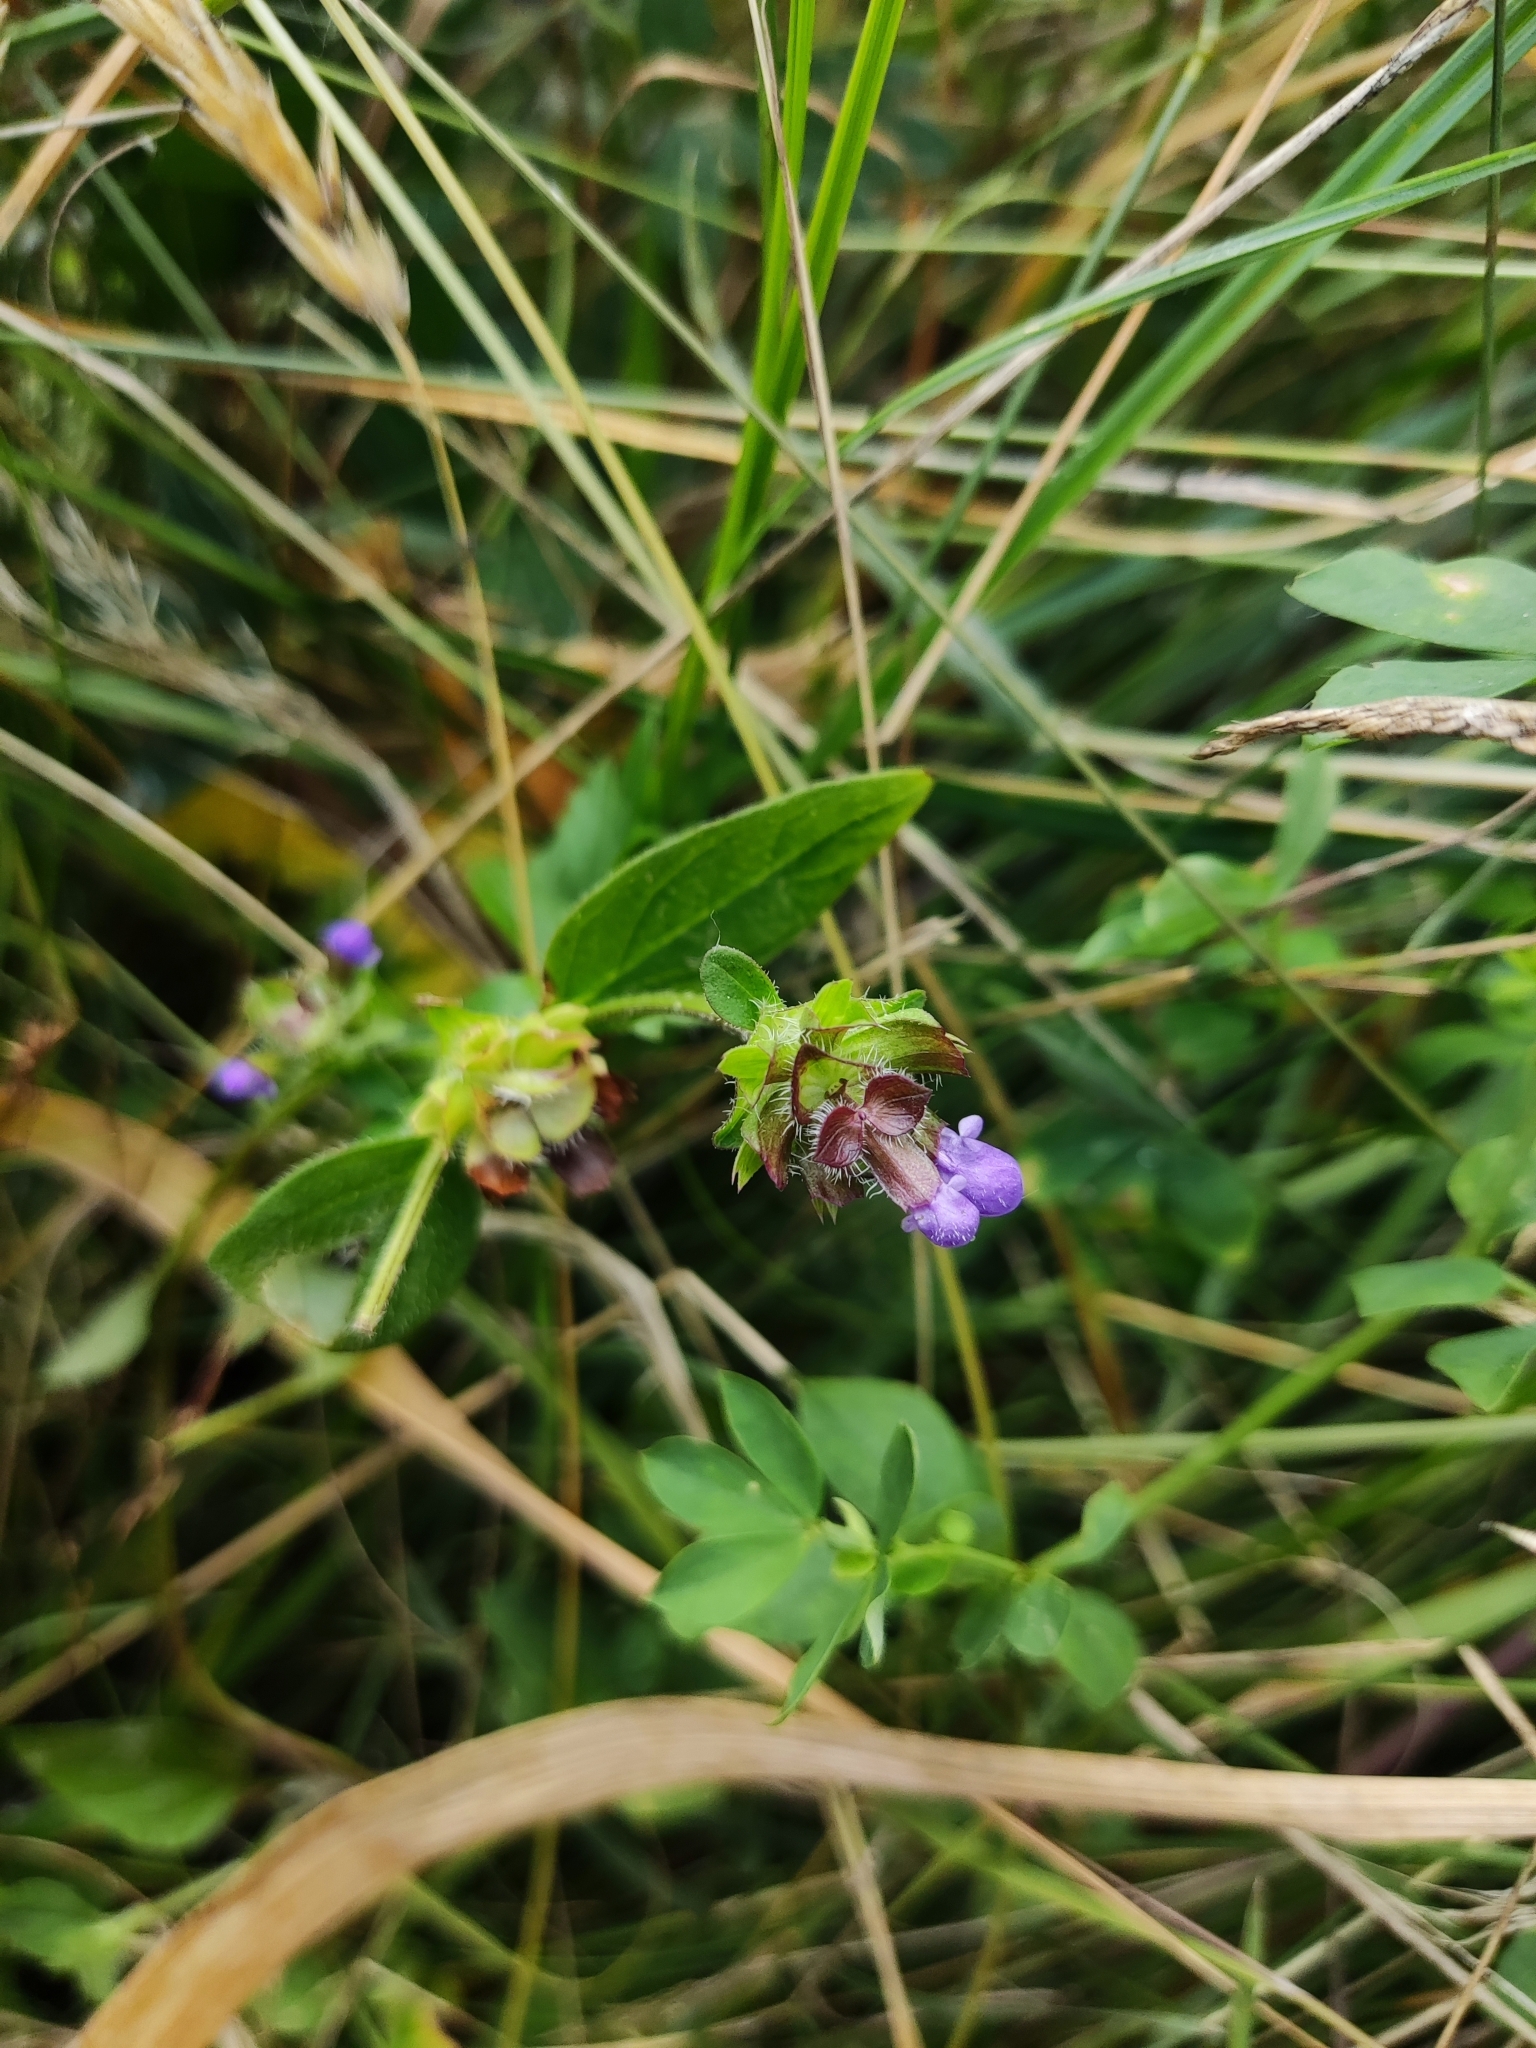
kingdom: Plantae
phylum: Tracheophyta
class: Magnoliopsida
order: Lamiales
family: Lamiaceae
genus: Prunella
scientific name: Prunella vulgaris
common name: Heal-all
